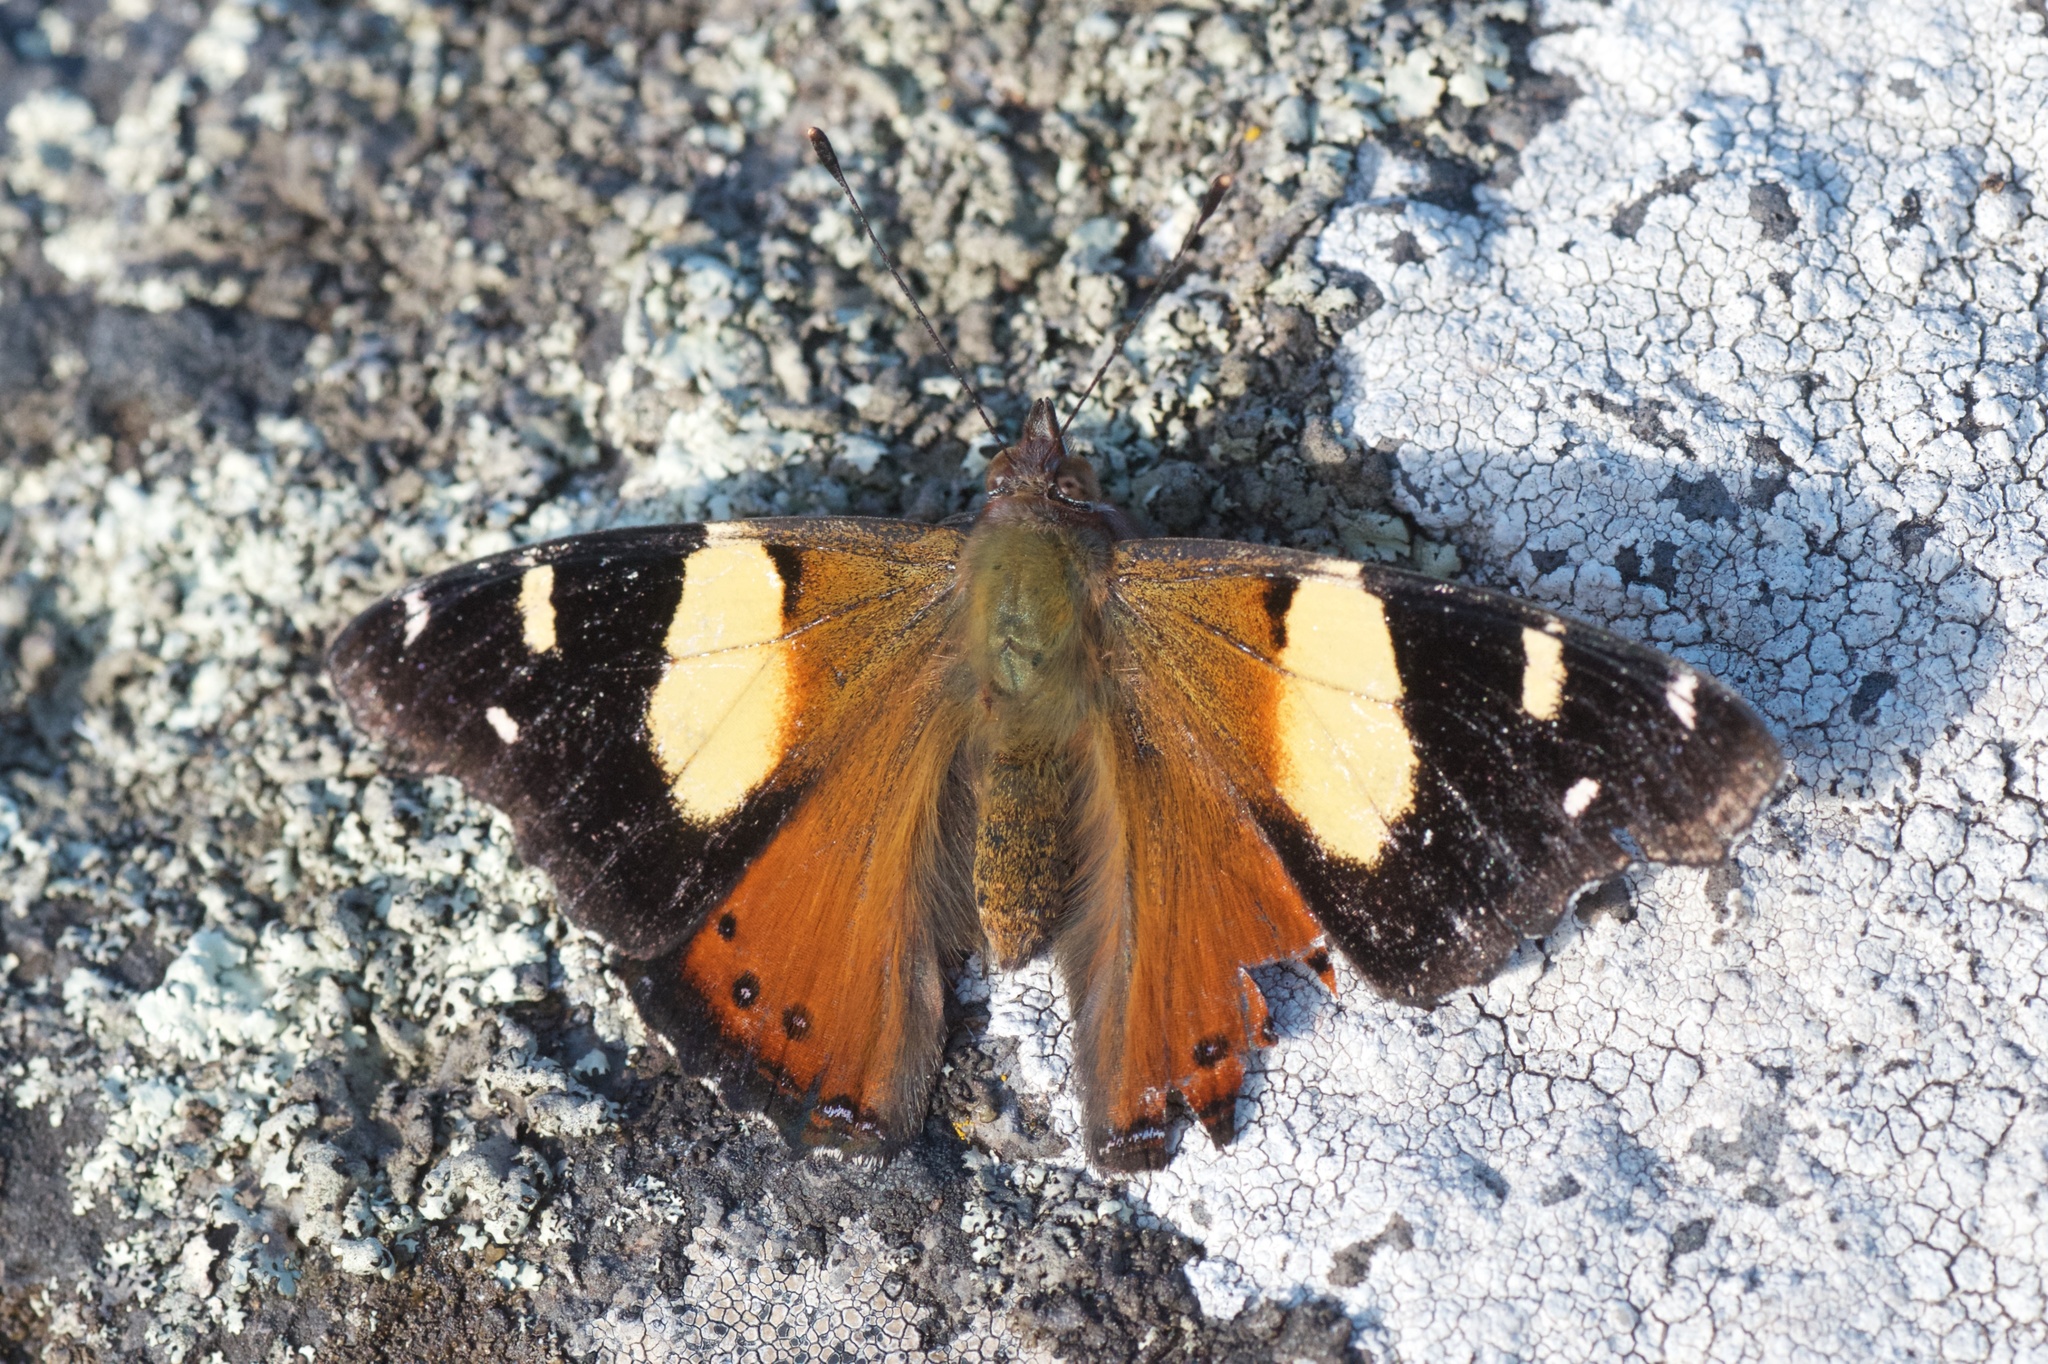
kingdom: Animalia
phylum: Arthropoda
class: Insecta
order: Lepidoptera
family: Nymphalidae
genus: Vanessa
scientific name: Vanessa itea
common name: Yellow admiral
